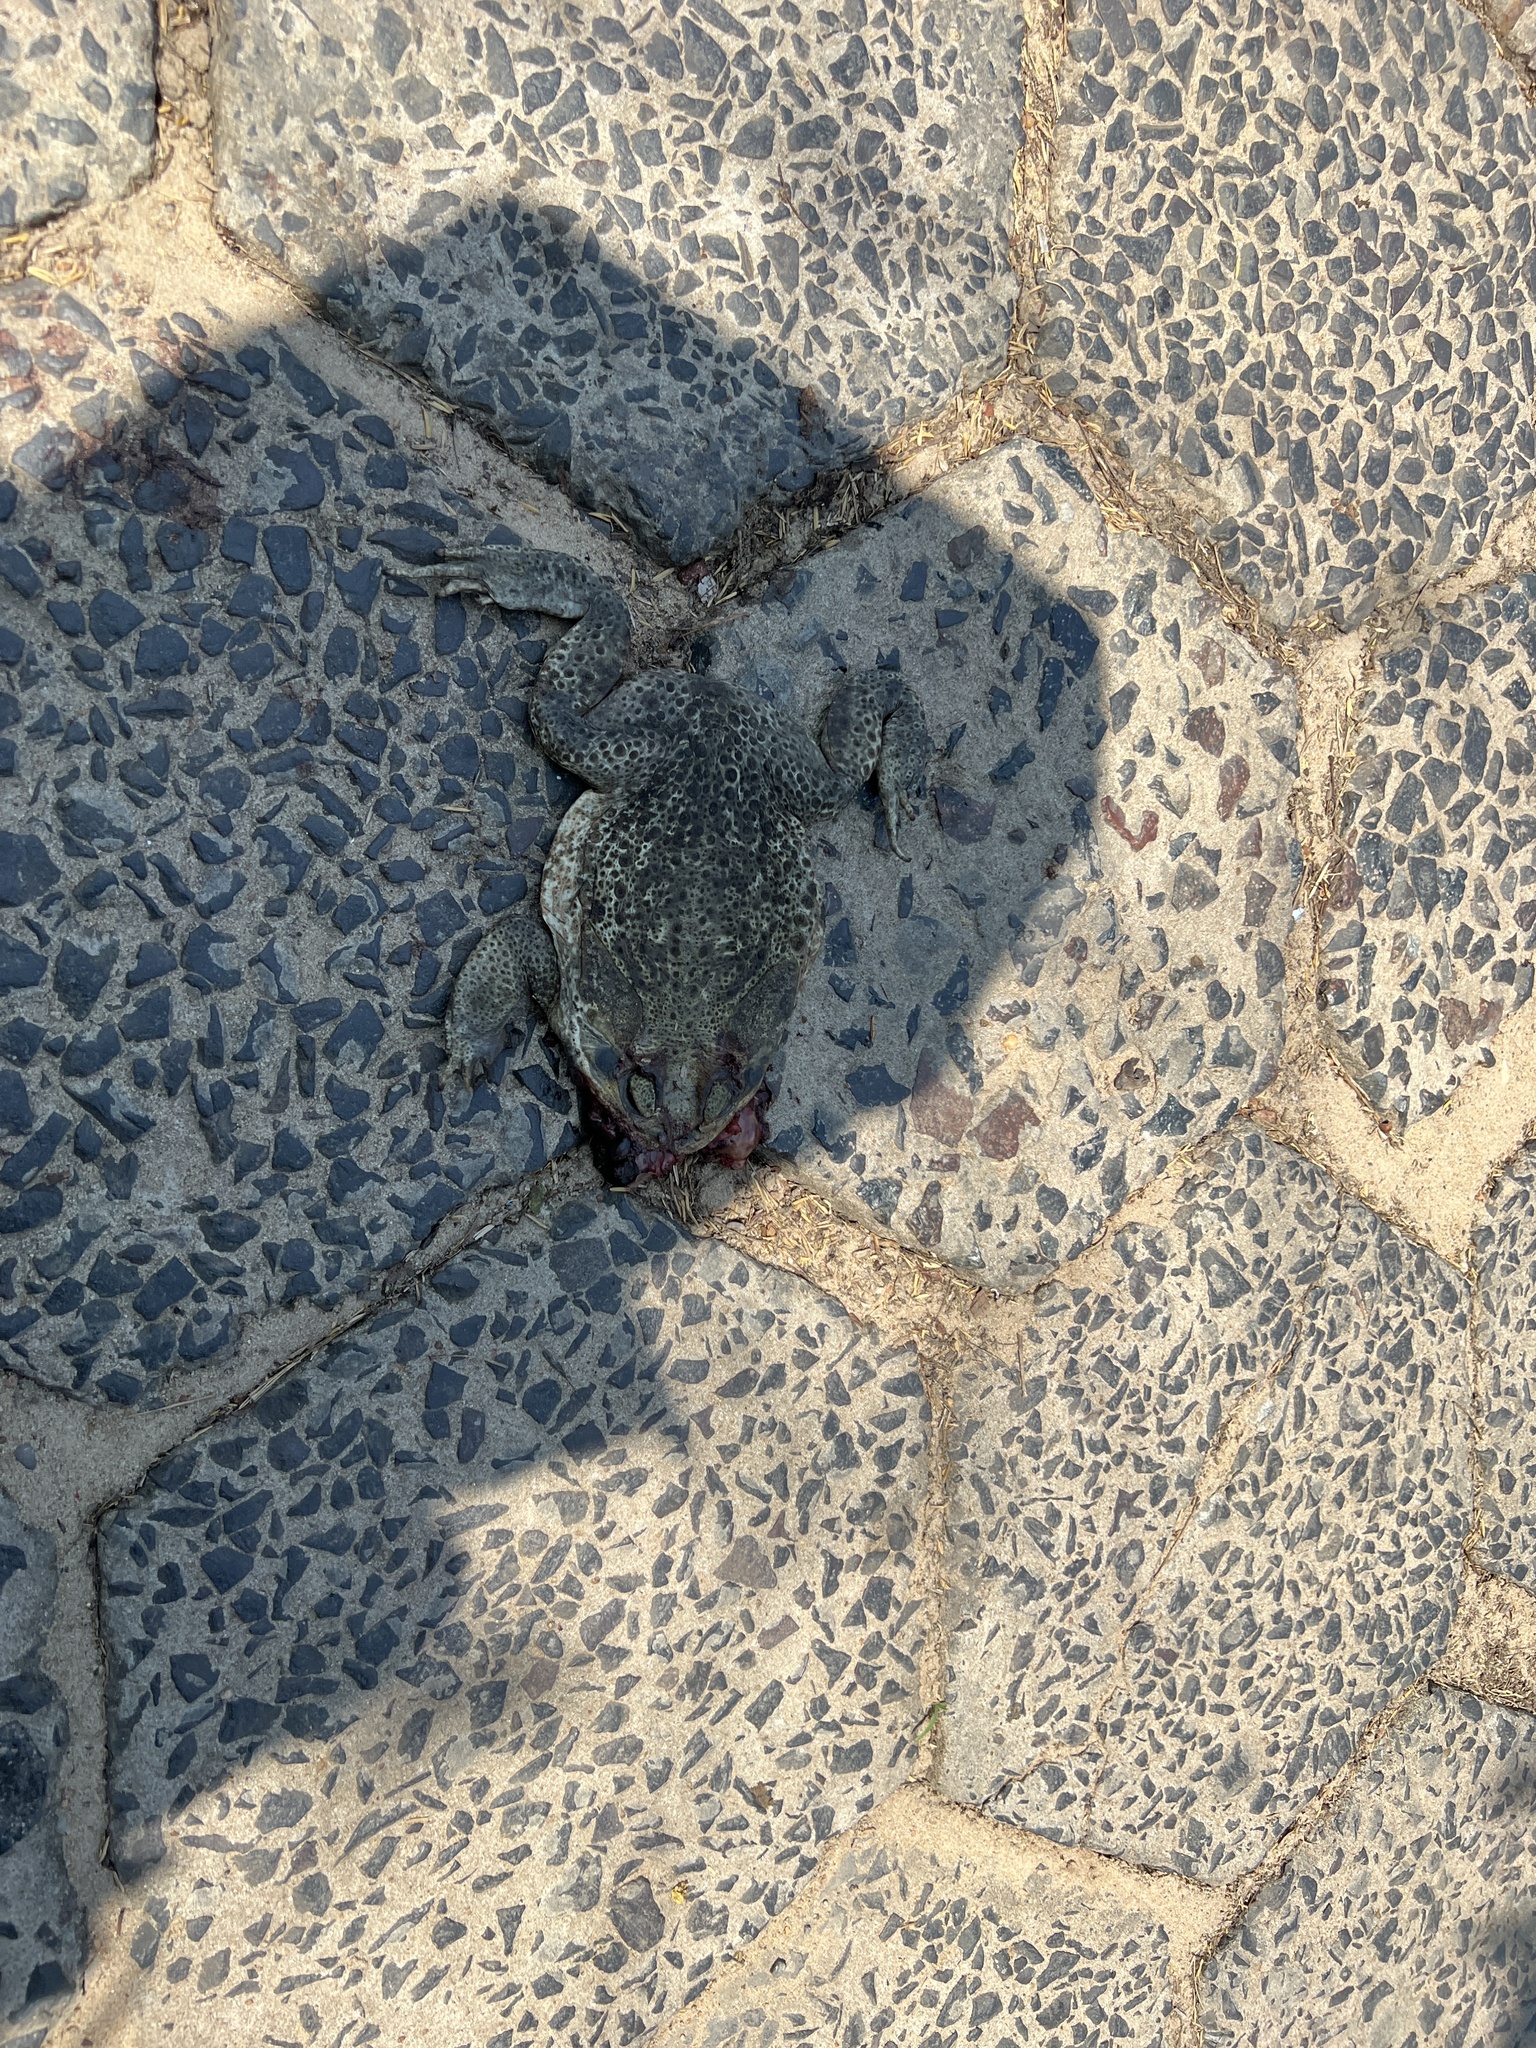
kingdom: Animalia
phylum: Chordata
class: Amphibia
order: Anura
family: Bufonidae
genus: Rhinella
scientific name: Rhinella diptycha
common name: Cope's toad
